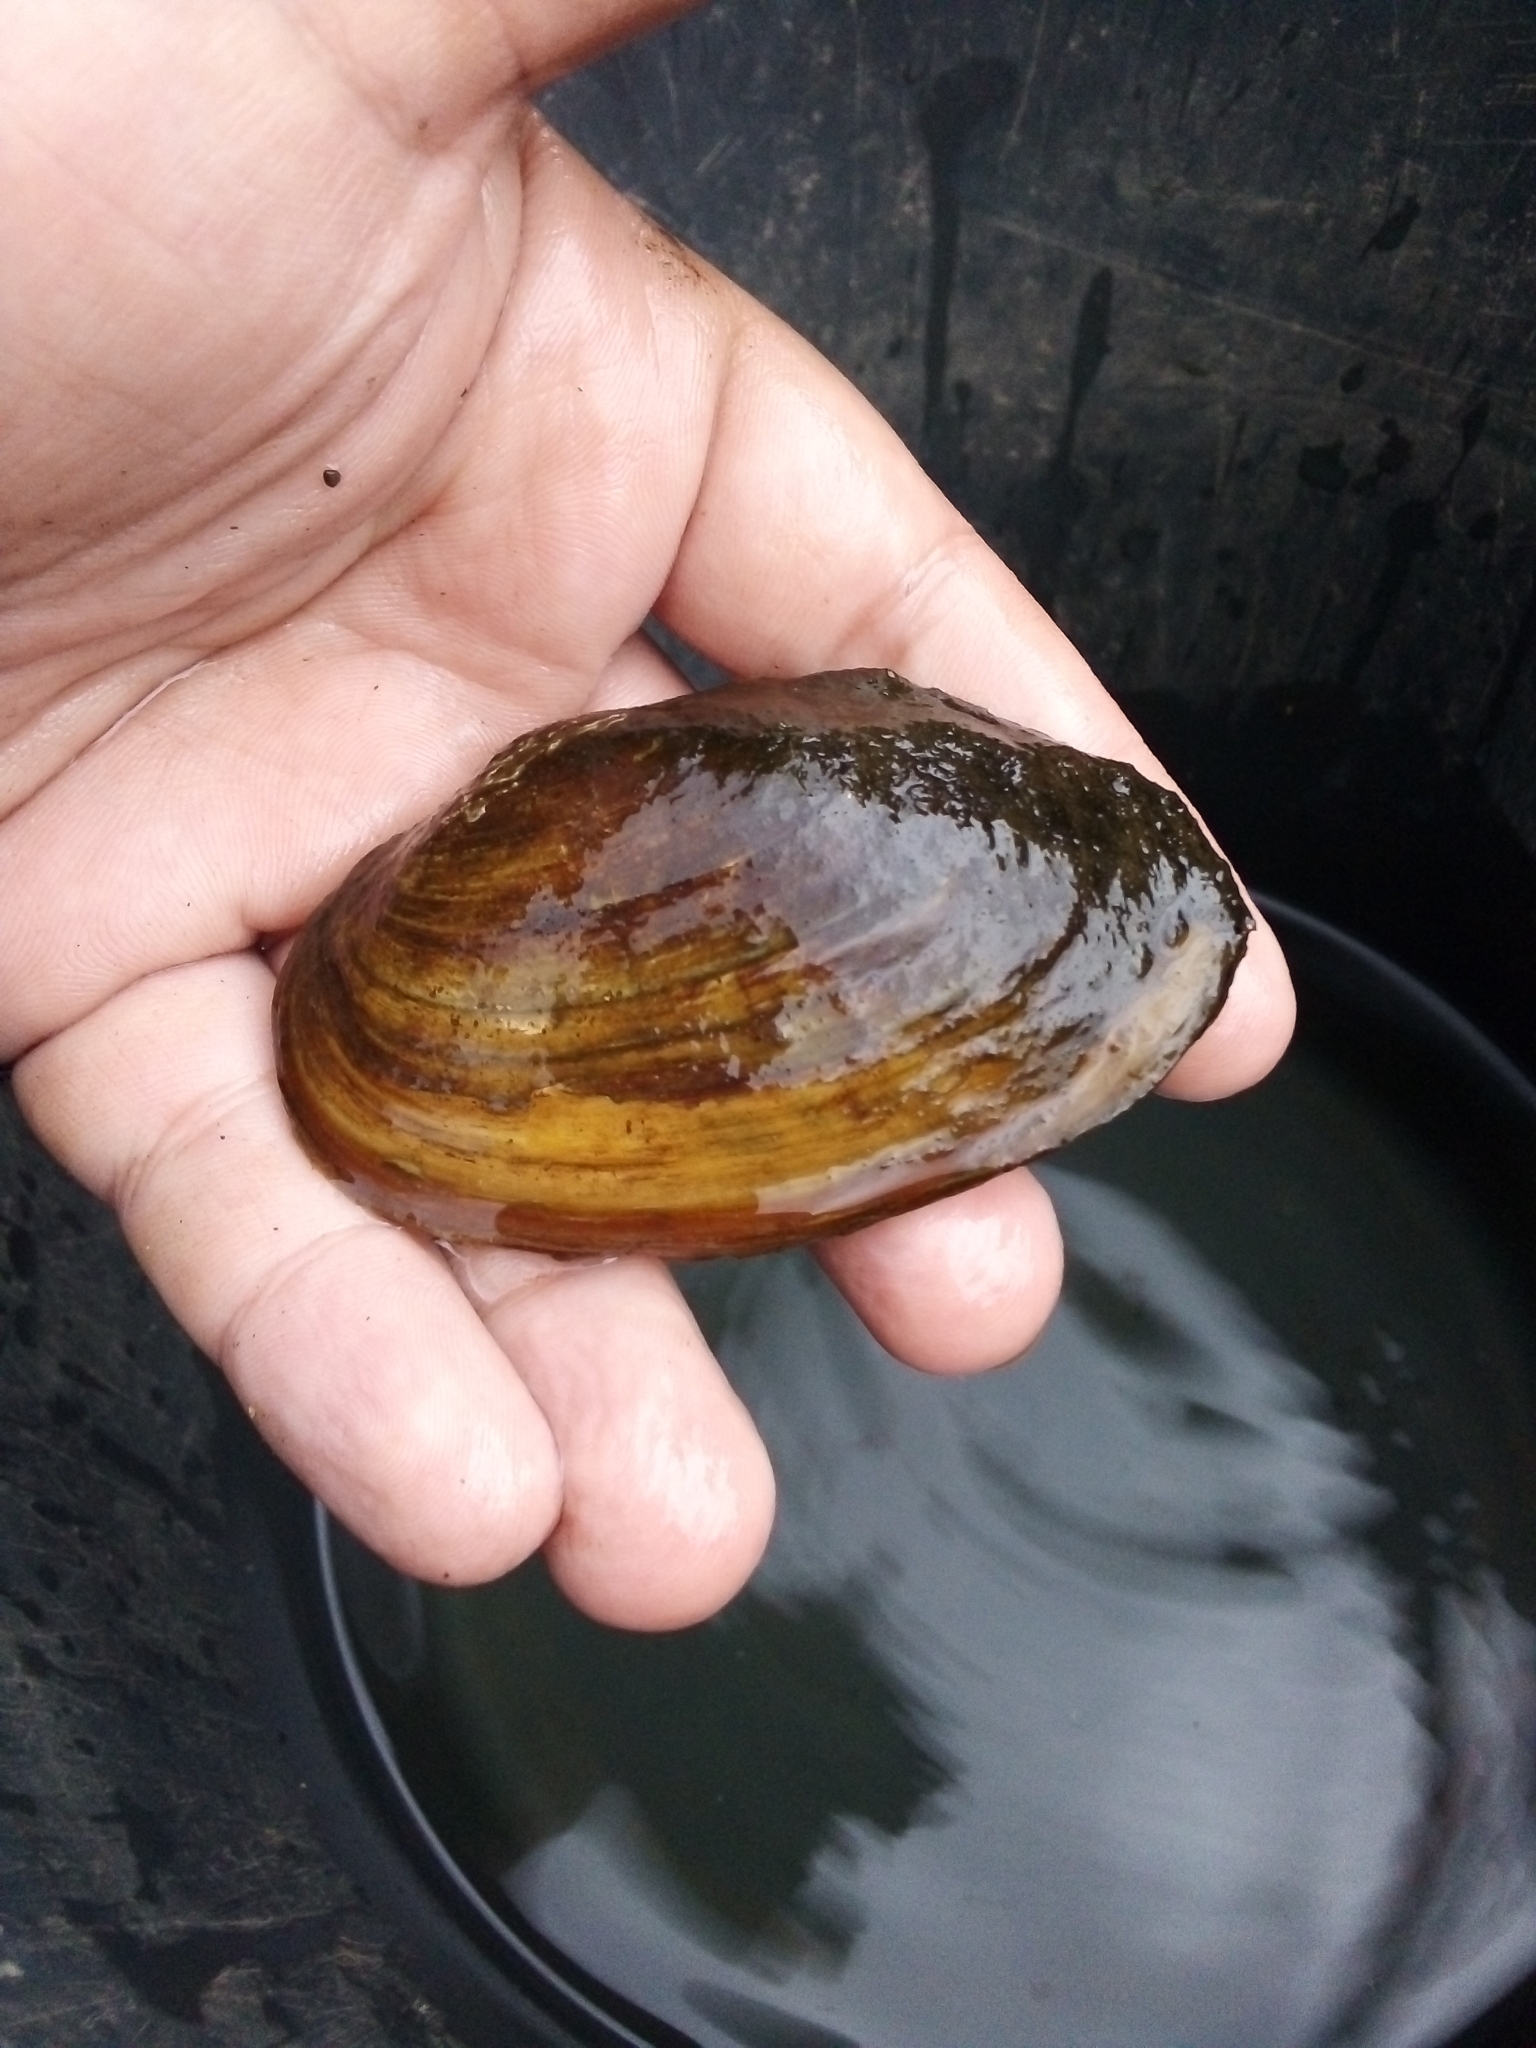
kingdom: Animalia
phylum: Mollusca
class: Bivalvia
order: Unionida
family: Unionidae
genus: Anodonta
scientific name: Anodonta anatina
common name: Duck mussel
